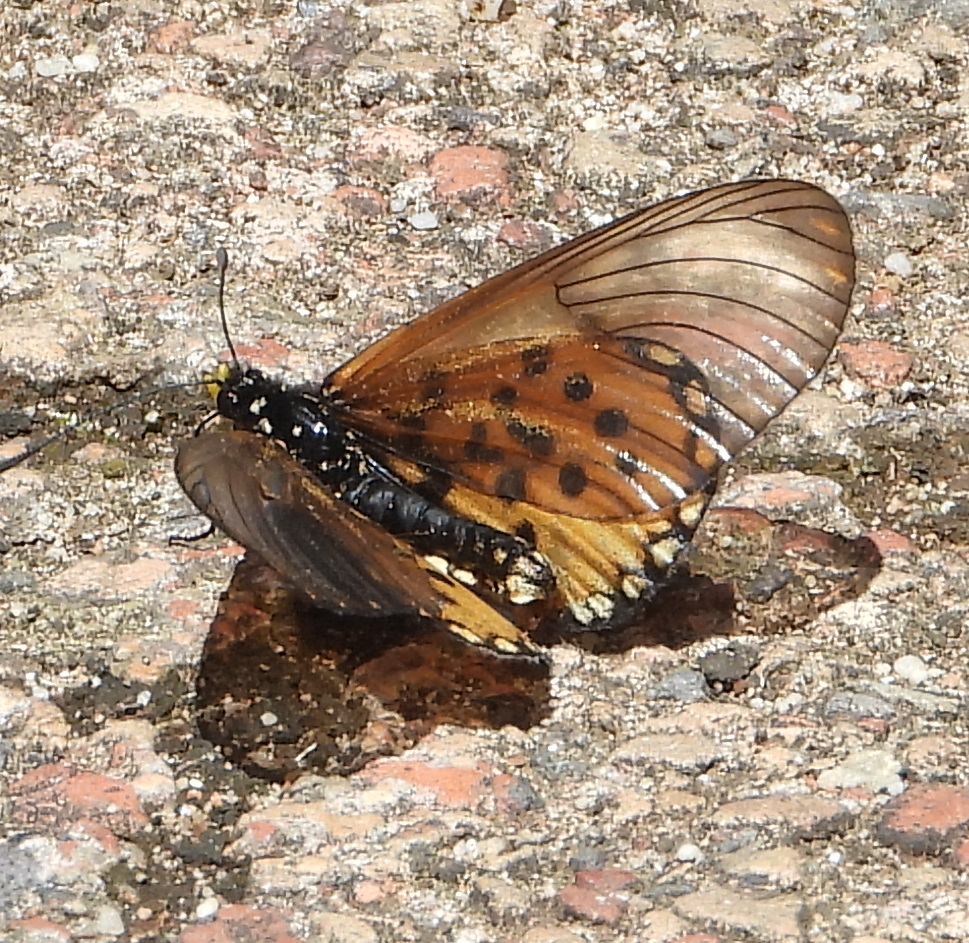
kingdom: Animalia
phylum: Arthropoda
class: Insecta
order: Lepidoptera
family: Nymphalidae
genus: Acraea
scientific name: Acraea horta
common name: Garden acraea
